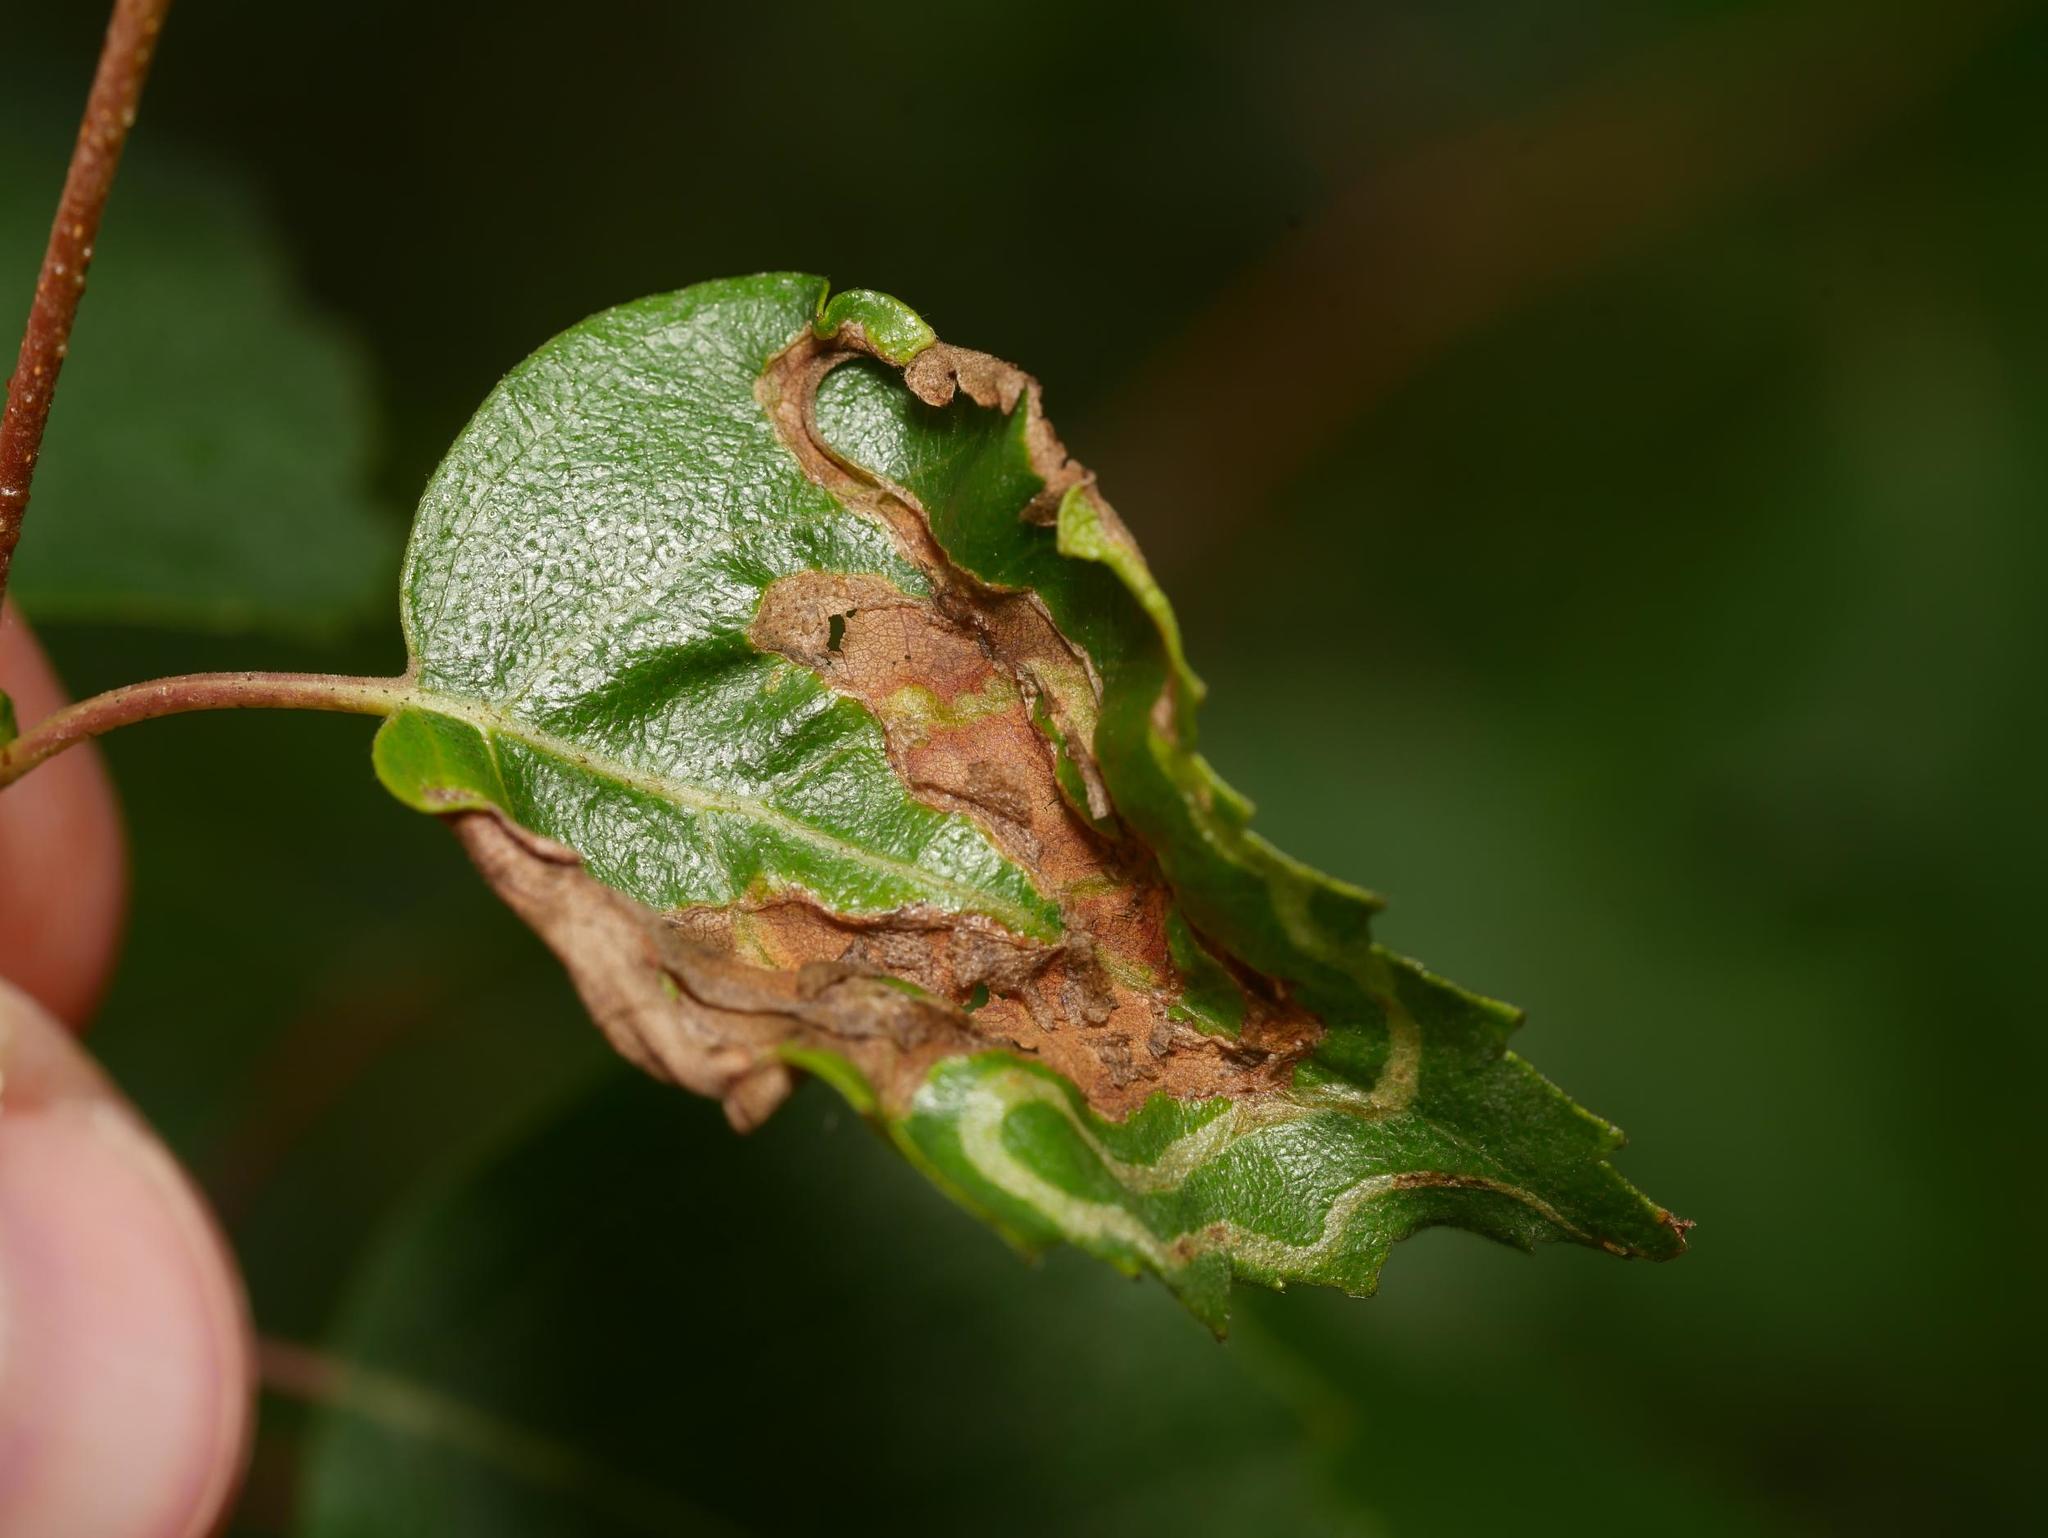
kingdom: Animalia
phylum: Arthropoda
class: Insecta
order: Diptera
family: Agromyzidae
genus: Agromyza
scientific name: Agromyza alnibetulae
